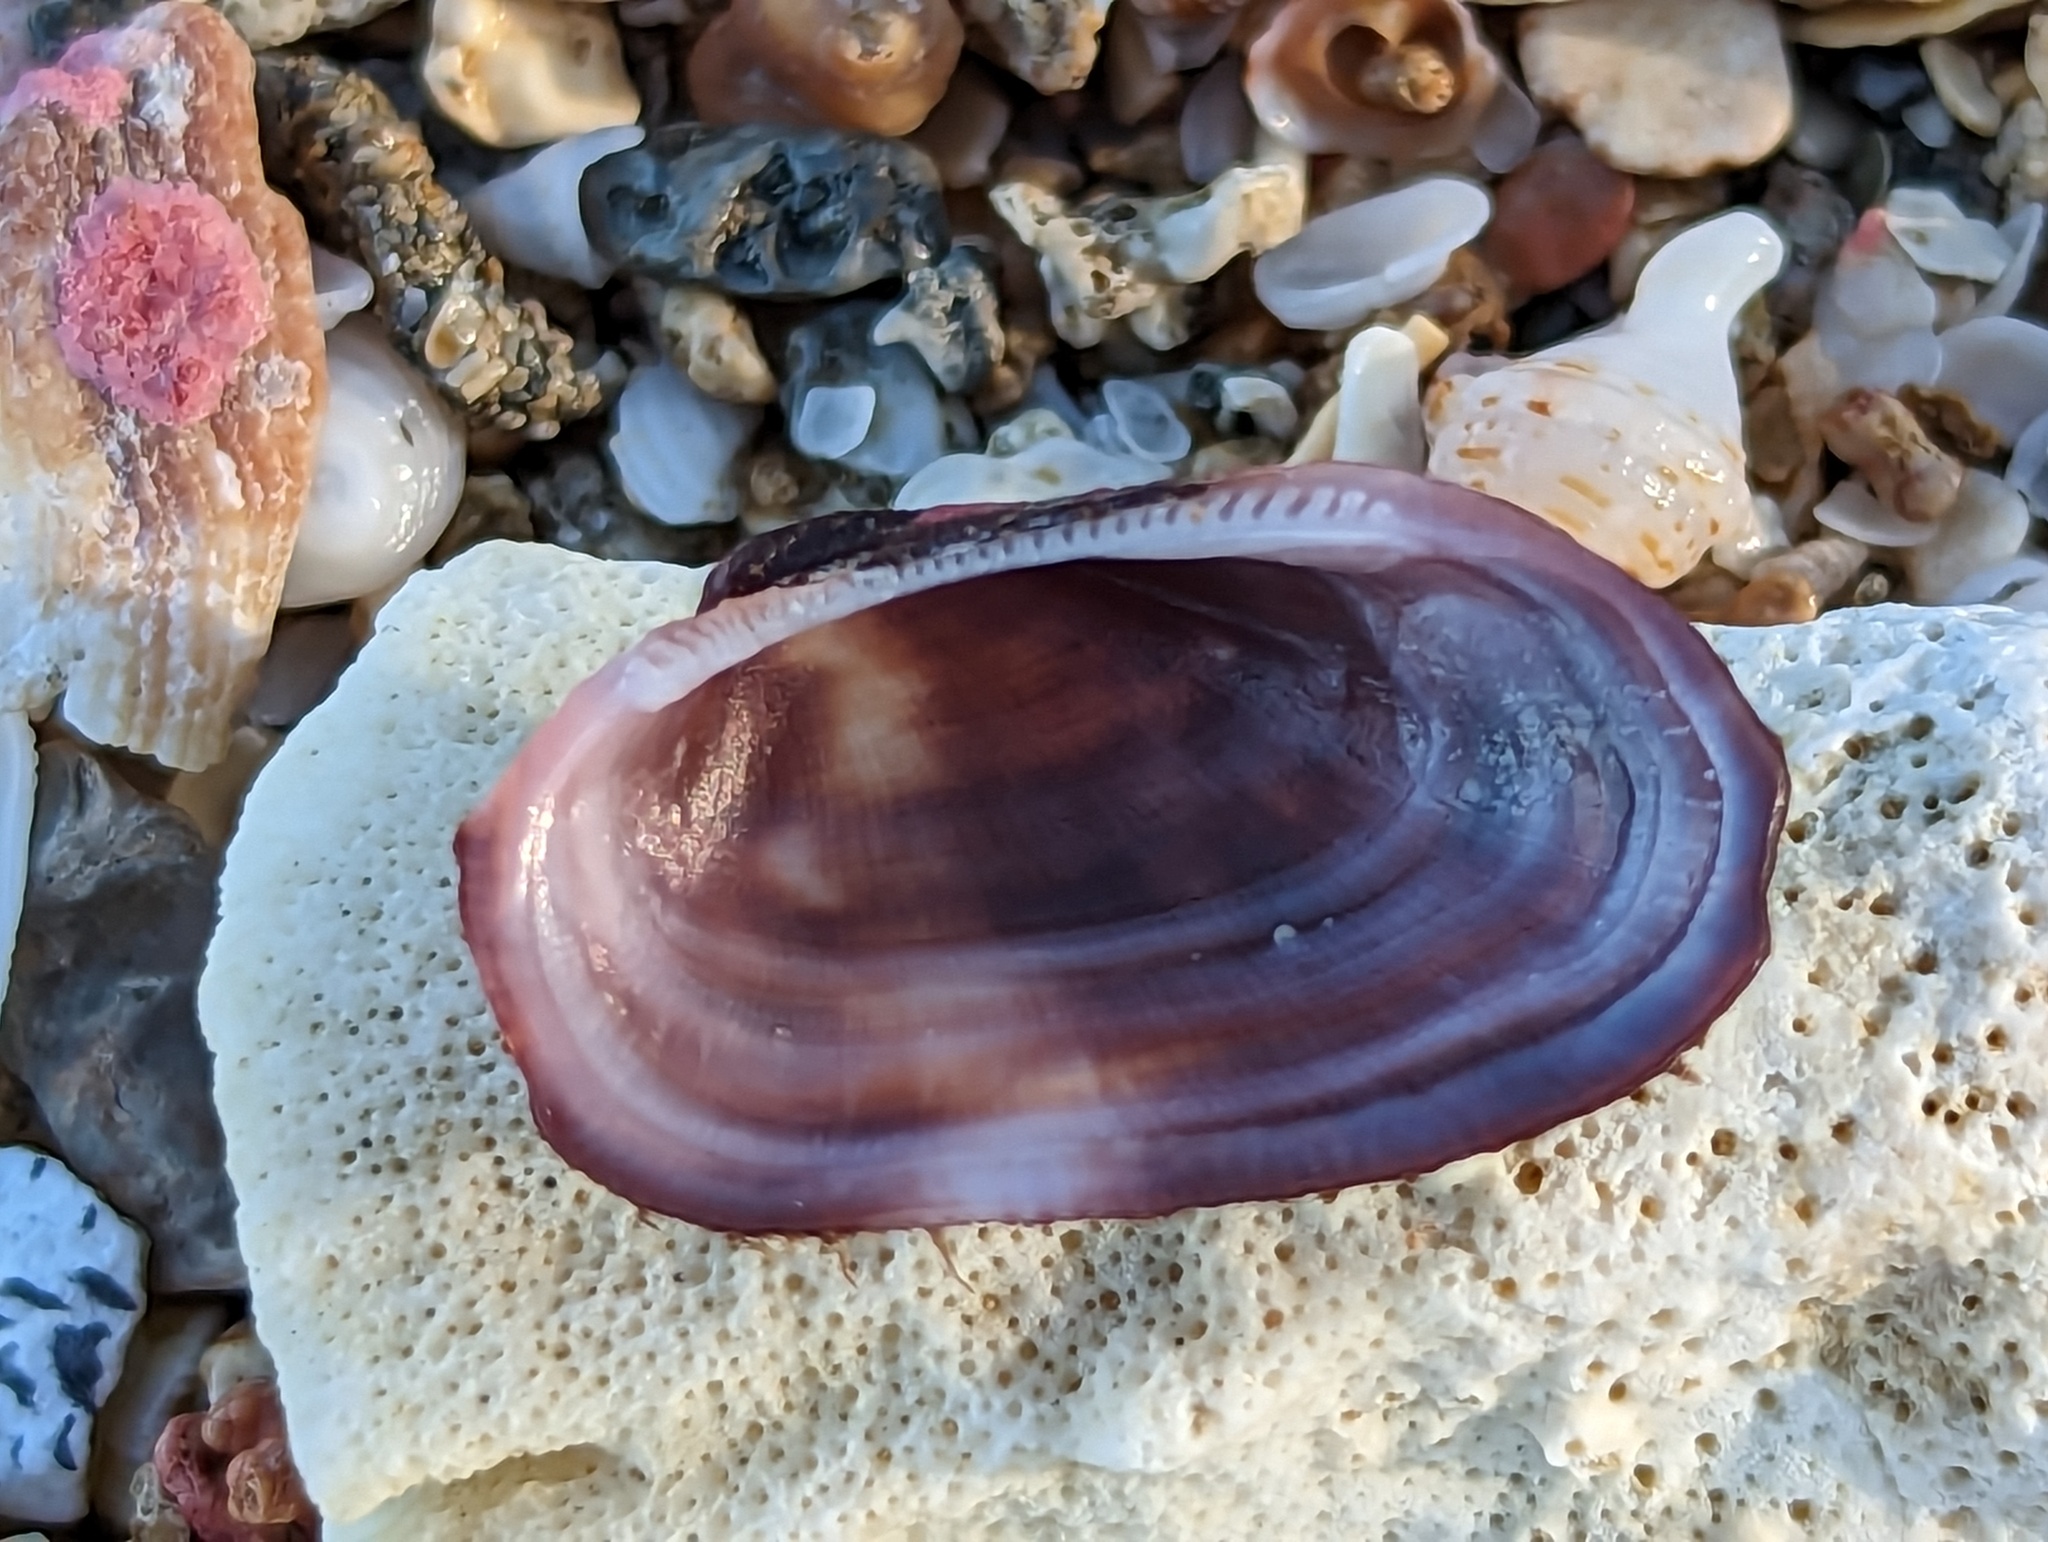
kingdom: Animalia
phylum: Mollusca
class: Bivalvia
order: Arcida
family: Arcidae
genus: Barbatia
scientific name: Barbatia domingensis
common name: White miniature ark
